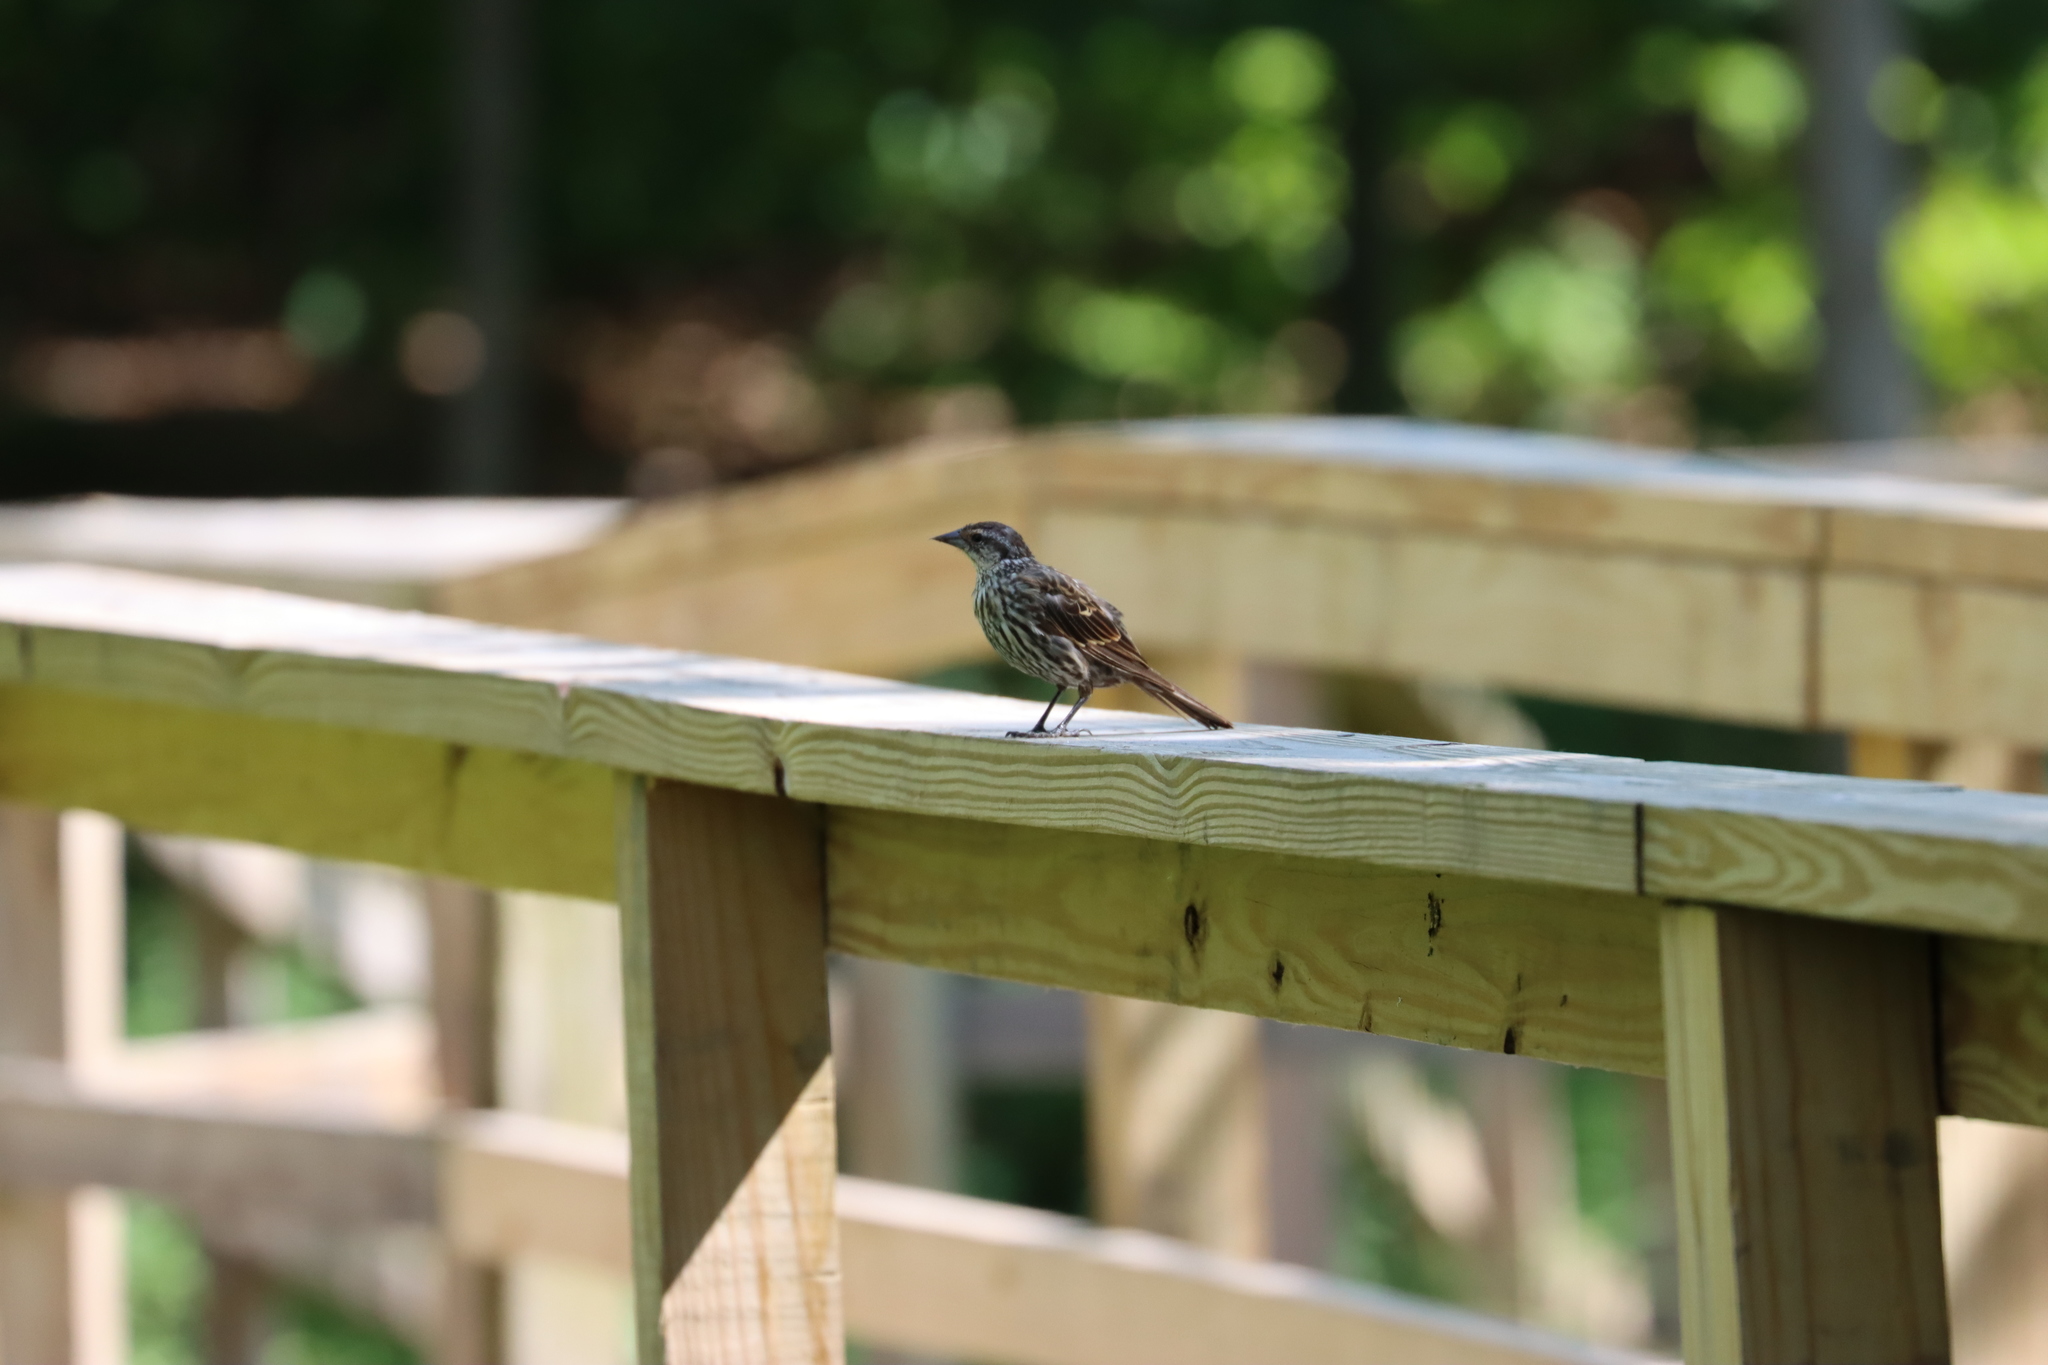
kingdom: Animalia
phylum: Chordata
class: Aves
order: Passeriformes
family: Icteridae
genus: Agelaius
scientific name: Agelaius phoeniceus
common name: Red-winged blackbird
